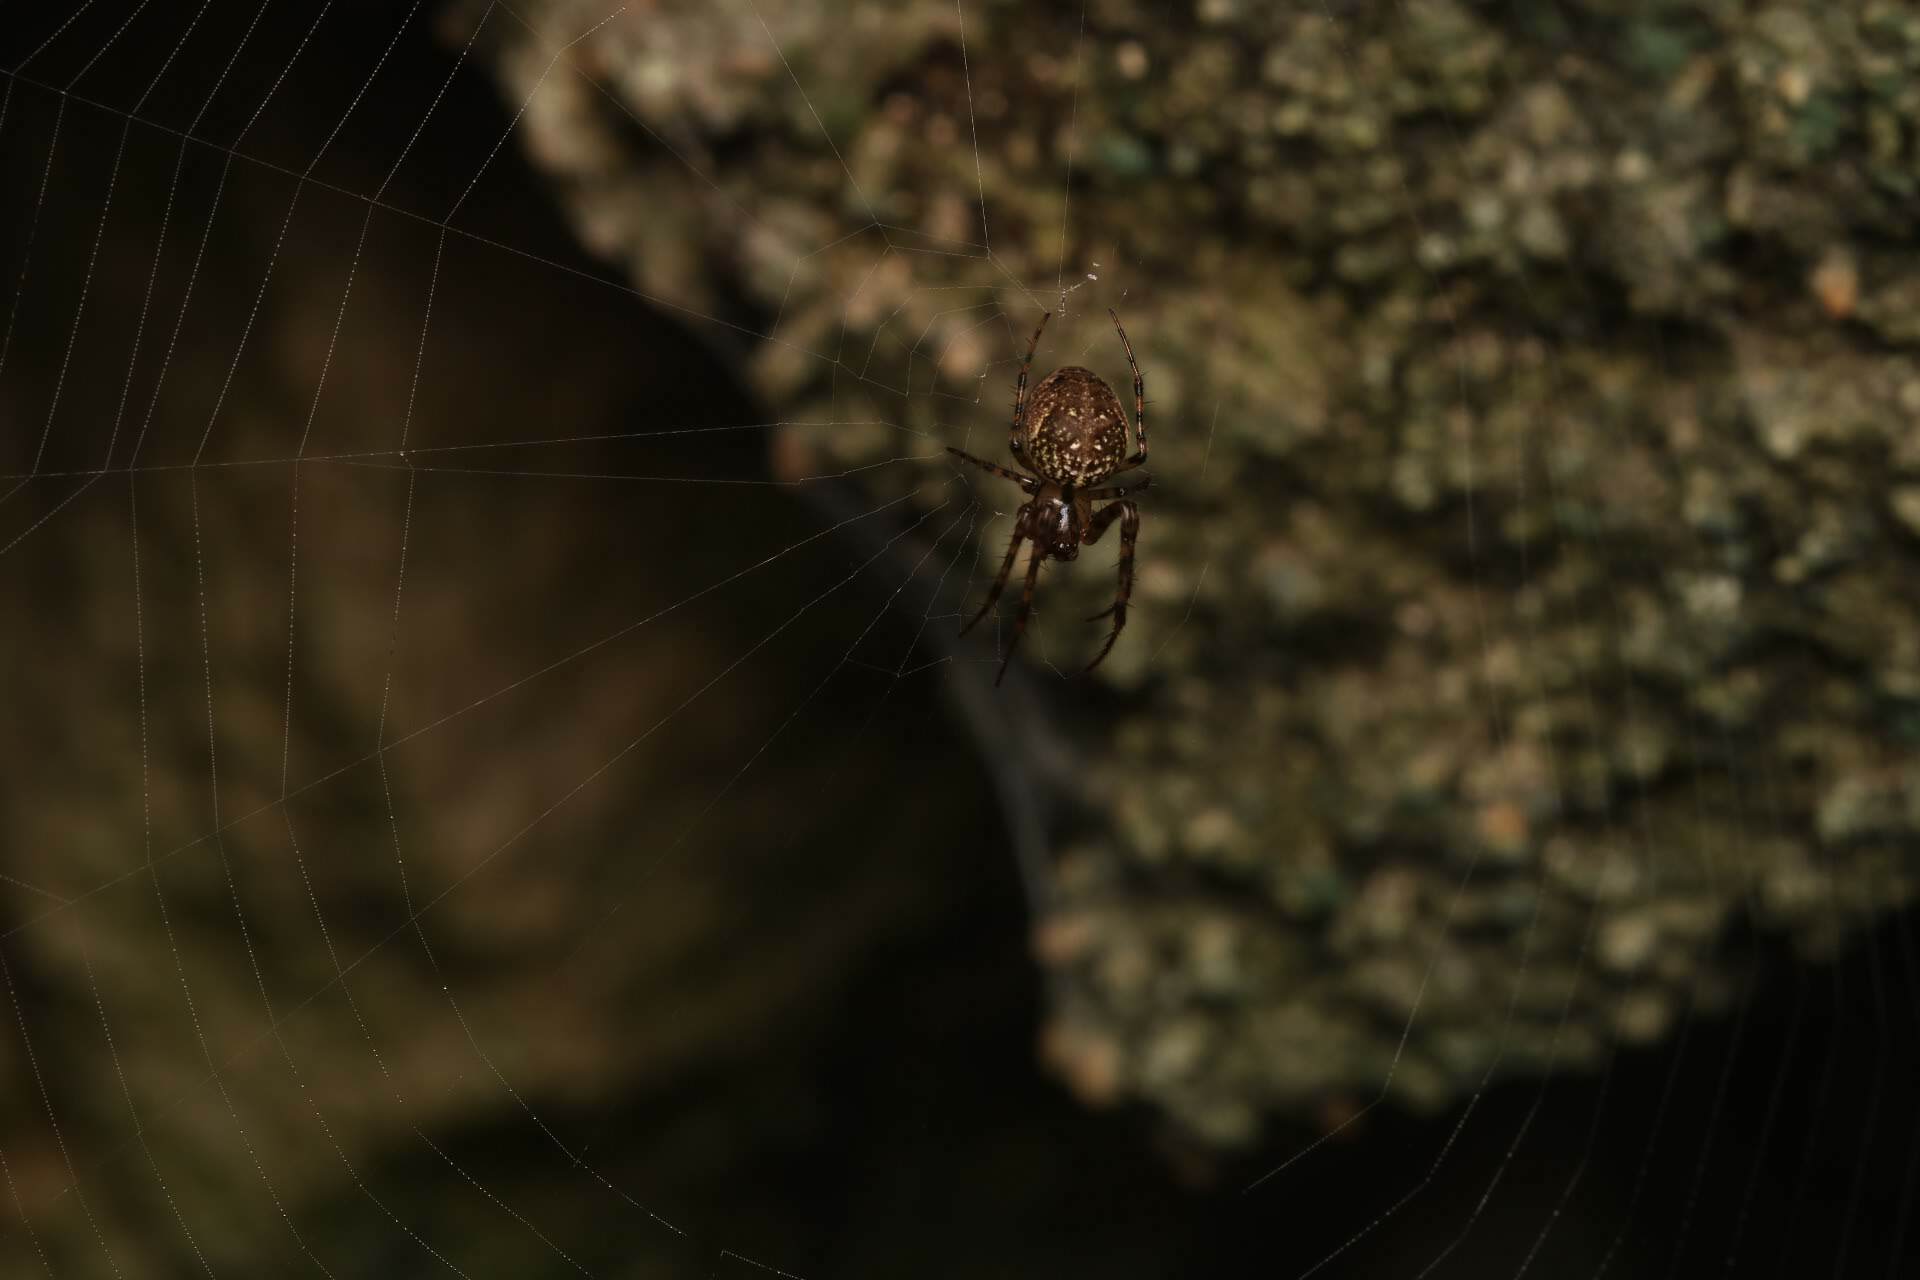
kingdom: Animalia
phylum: Arthropoda
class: Arachnida
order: Araneae
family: Tetragnathidae
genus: Metellina
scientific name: Metellina merianae
